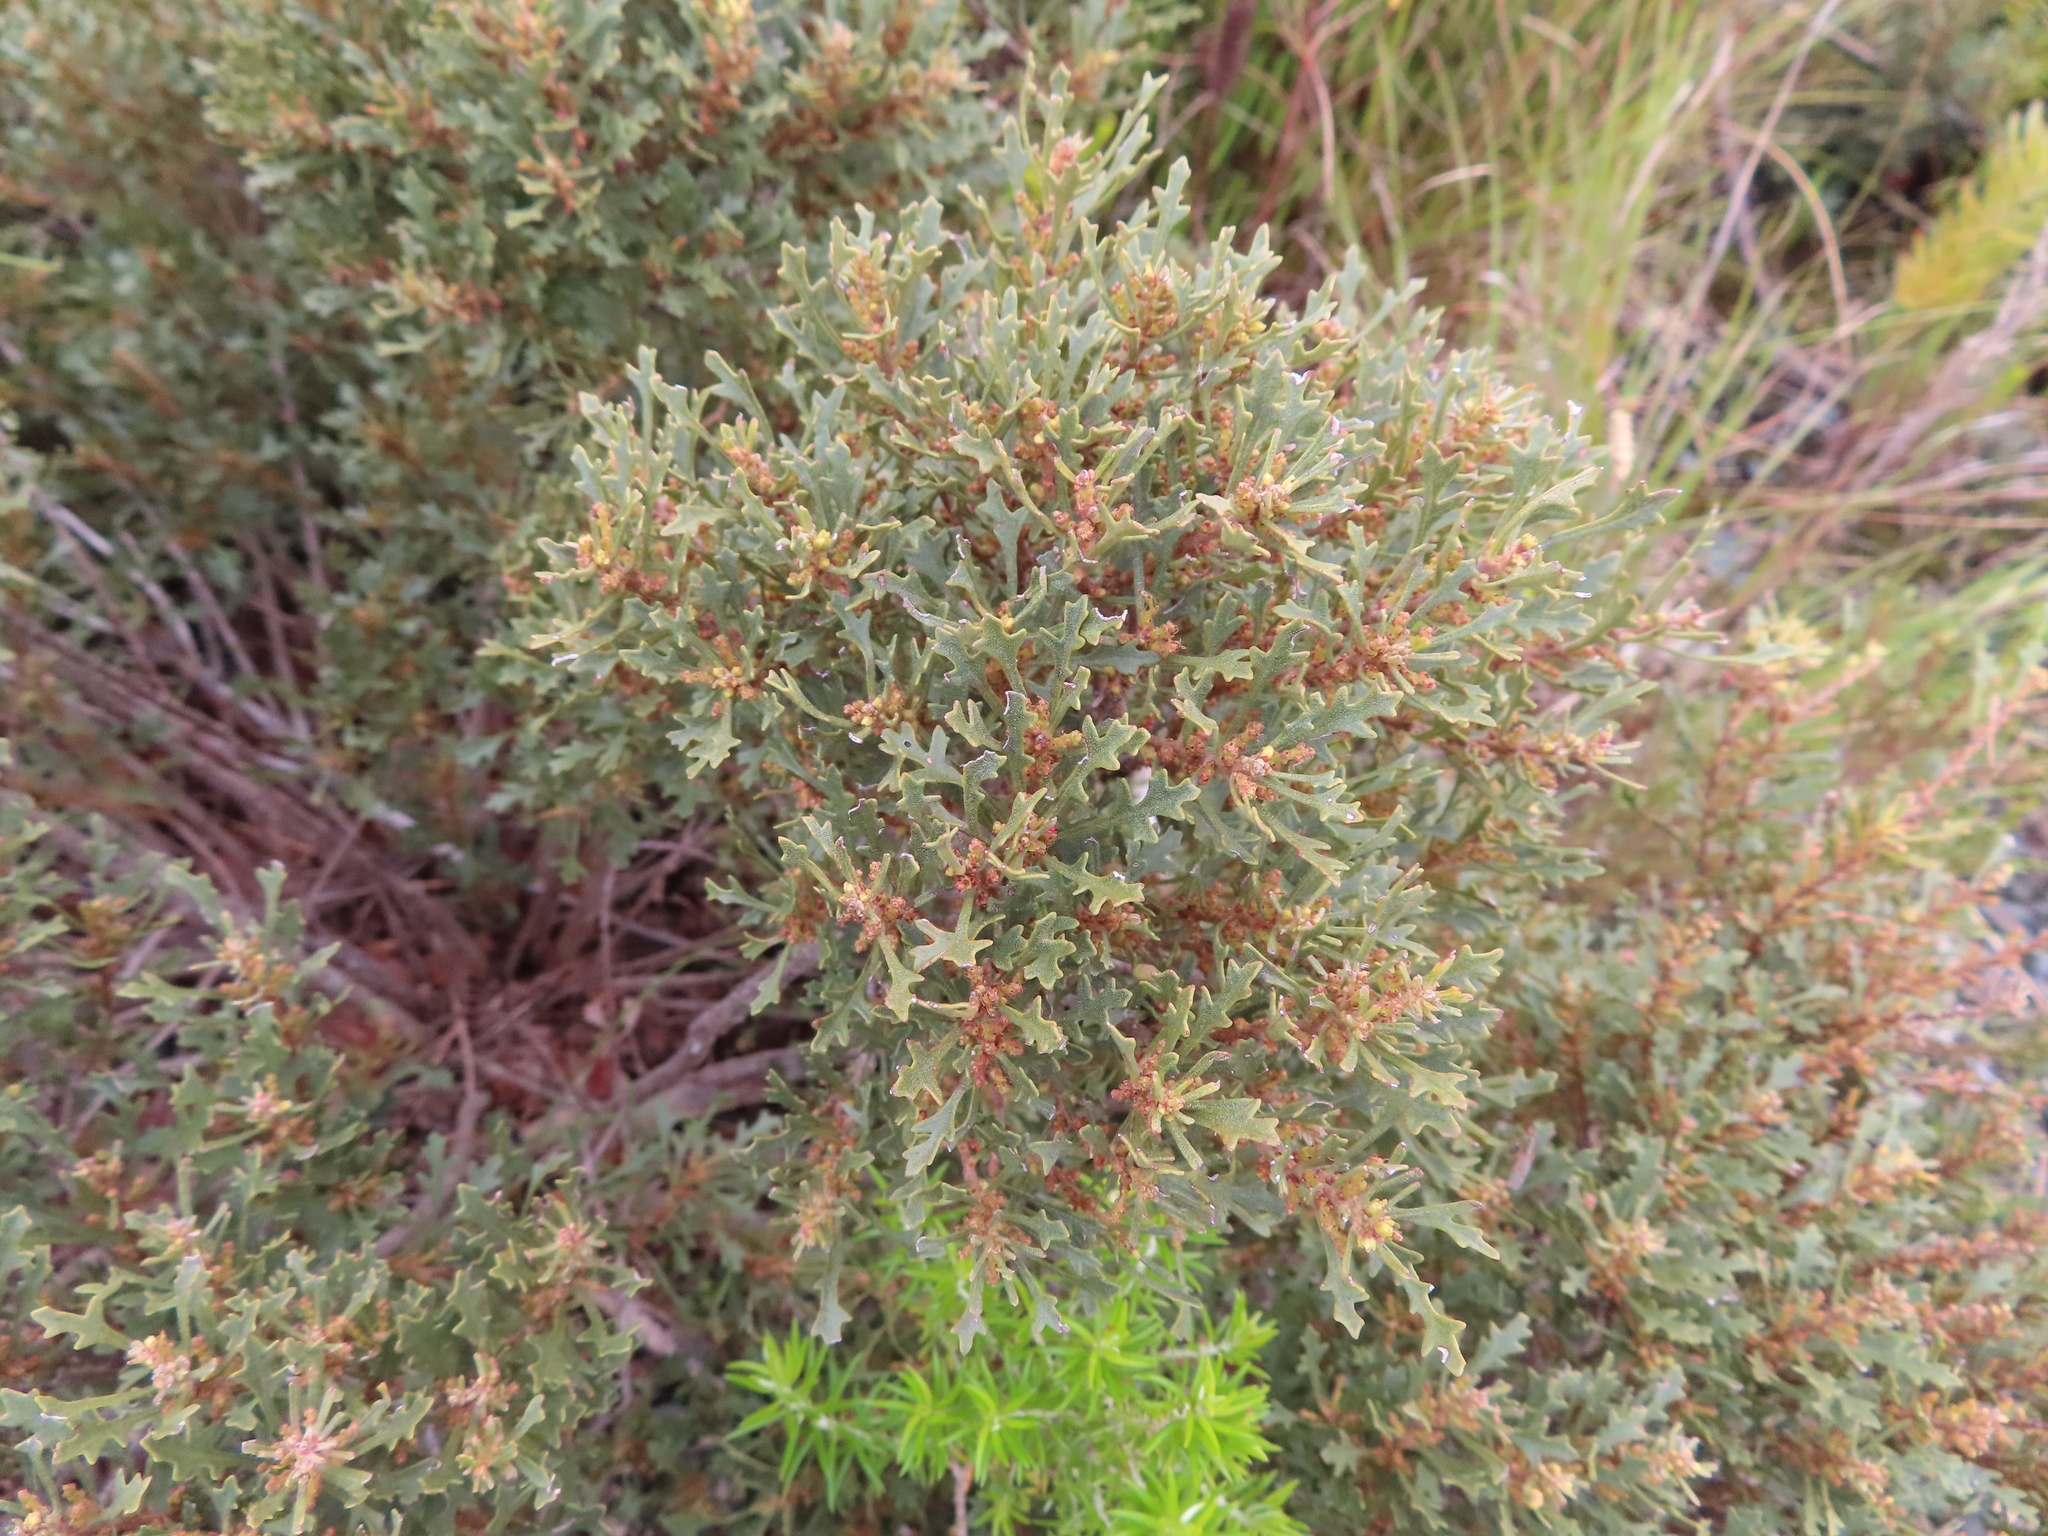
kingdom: Plantae
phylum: Tracheophyta
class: Magnoliopsida
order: Fagales
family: Myricaceae
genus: Morella
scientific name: Morella quercifolia
